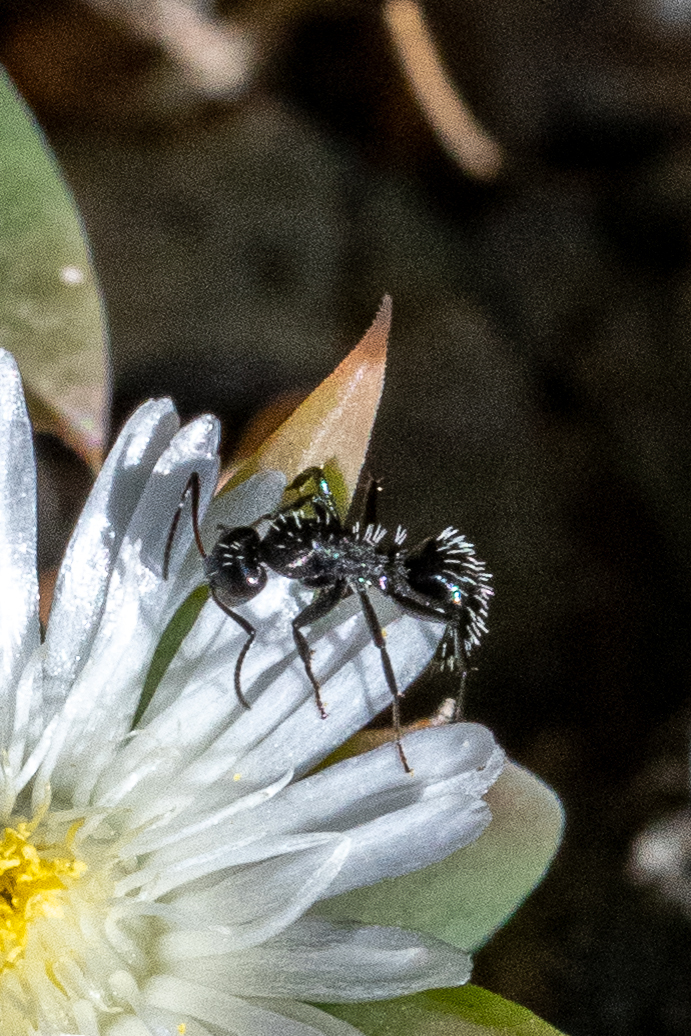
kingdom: Animalia
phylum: Arthropoda
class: Insecta
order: Hymenoptera
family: Formicidae
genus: Camponotus
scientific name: Camponotus niveosetosus
